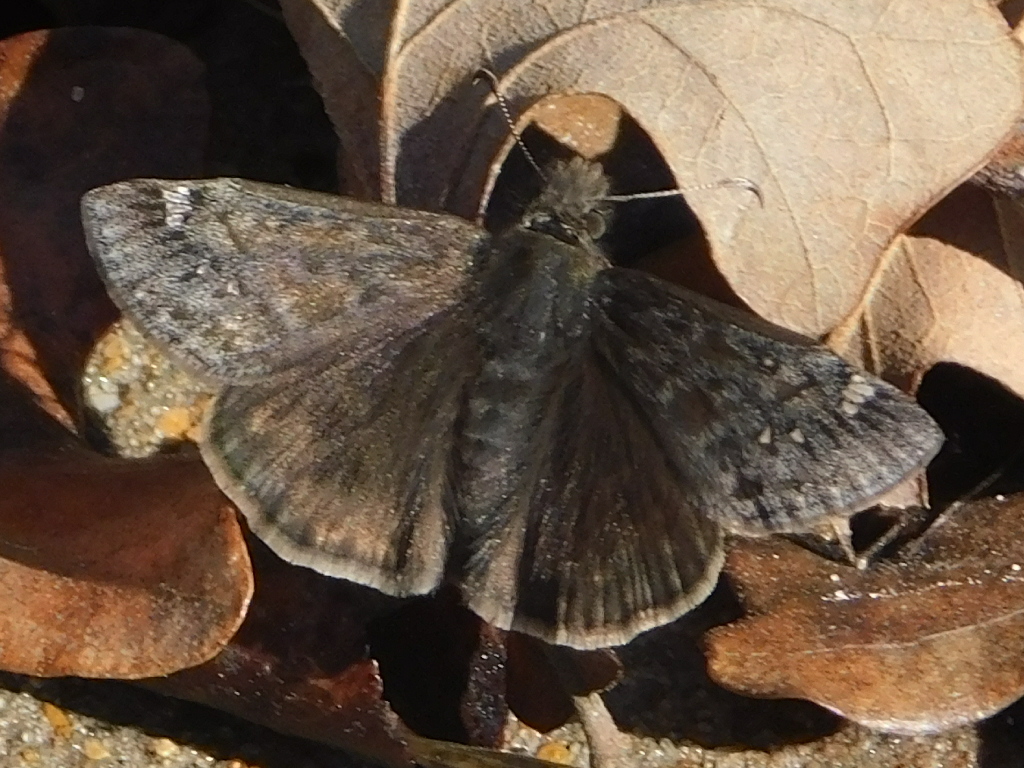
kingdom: Animalia
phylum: Arthropoda
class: Insecta
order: Lepidoptera
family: Hesperiidae
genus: Erynnis
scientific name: Erynnis juvenalis
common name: Juvenal's duskywing
